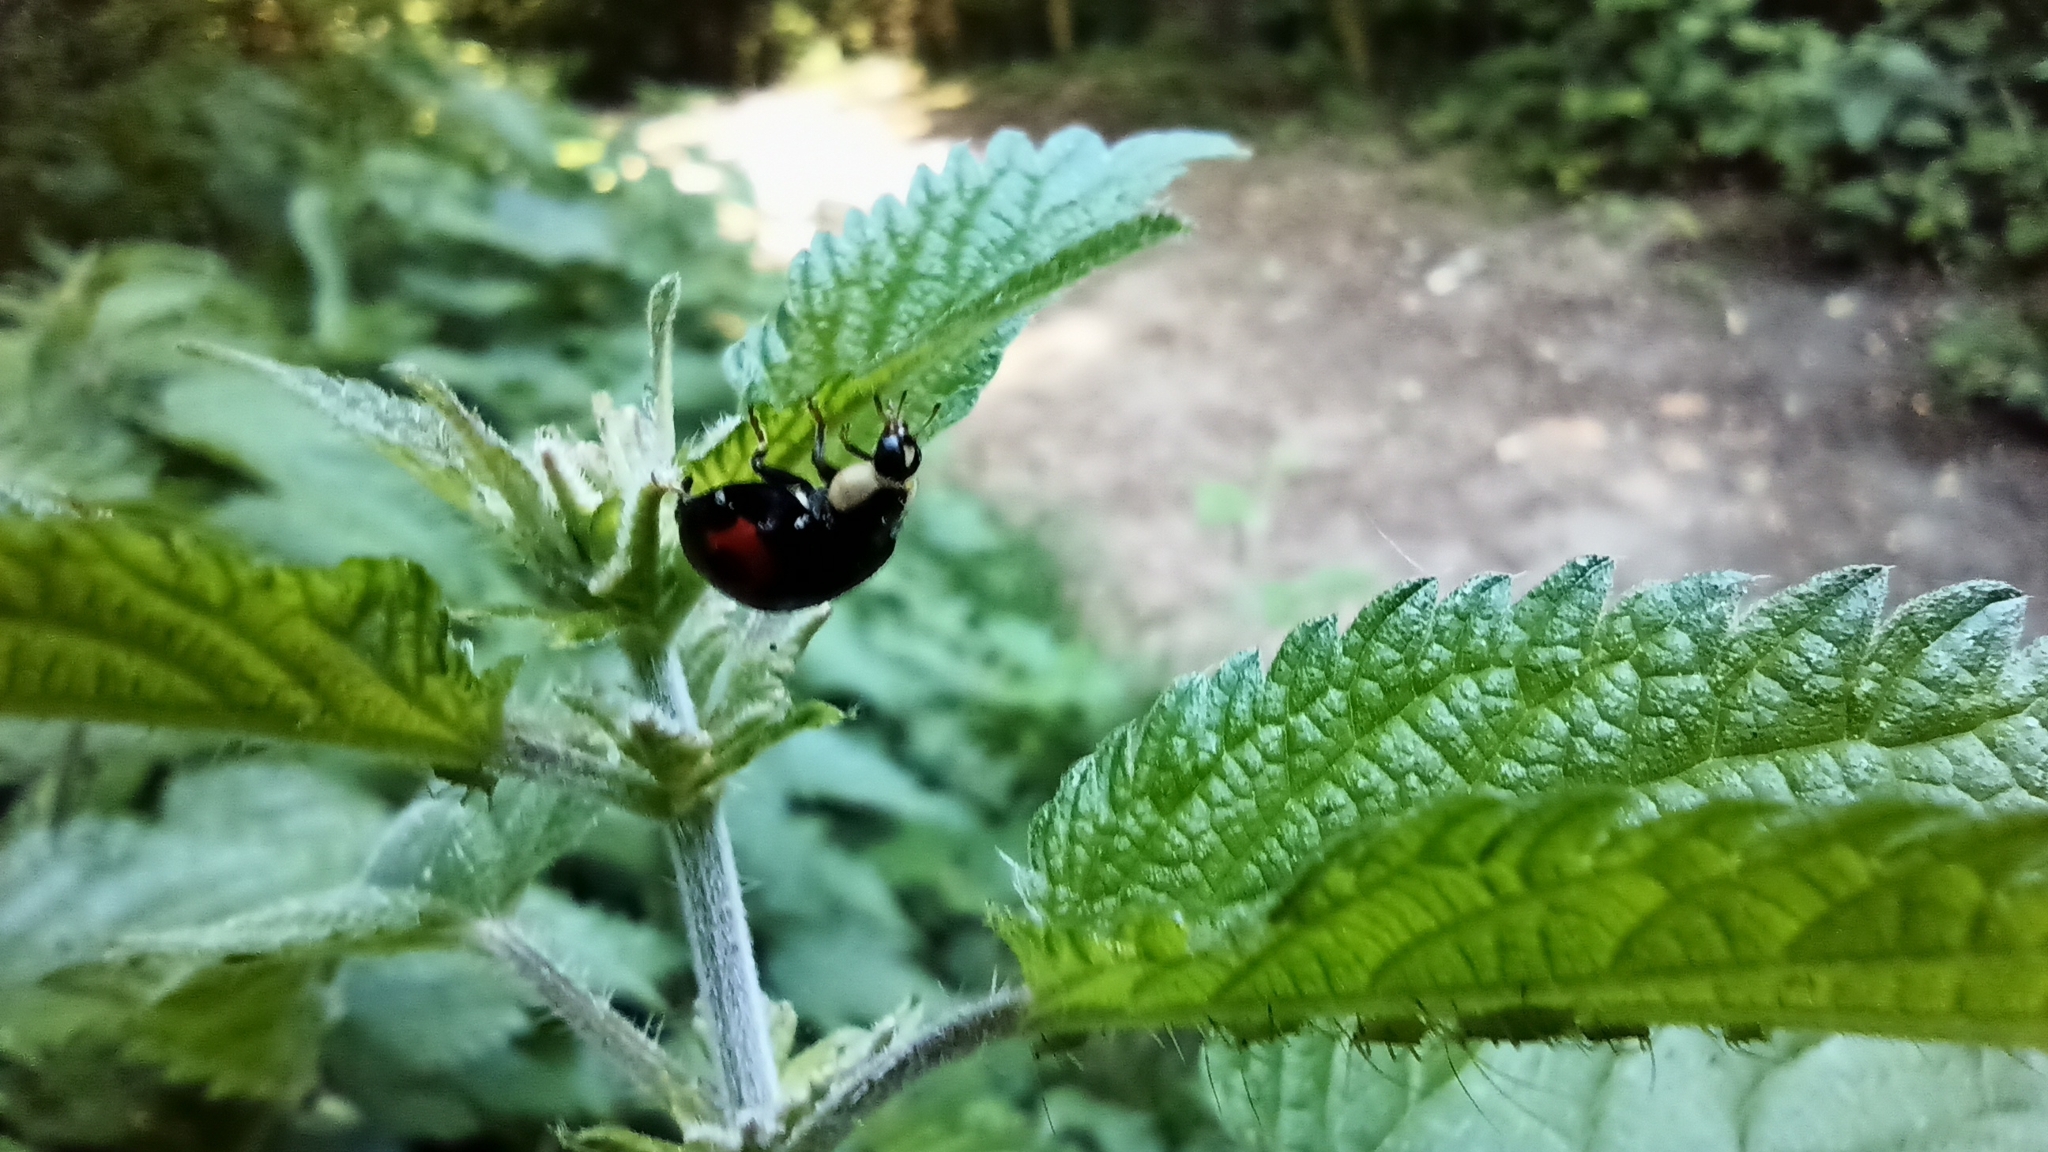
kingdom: Animalia
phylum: Arthropoda
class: Insecta
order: Coleoptera
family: Coccinellidae
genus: Harmonia
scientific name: Harmonia axyridis
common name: Harlequin ladybird
